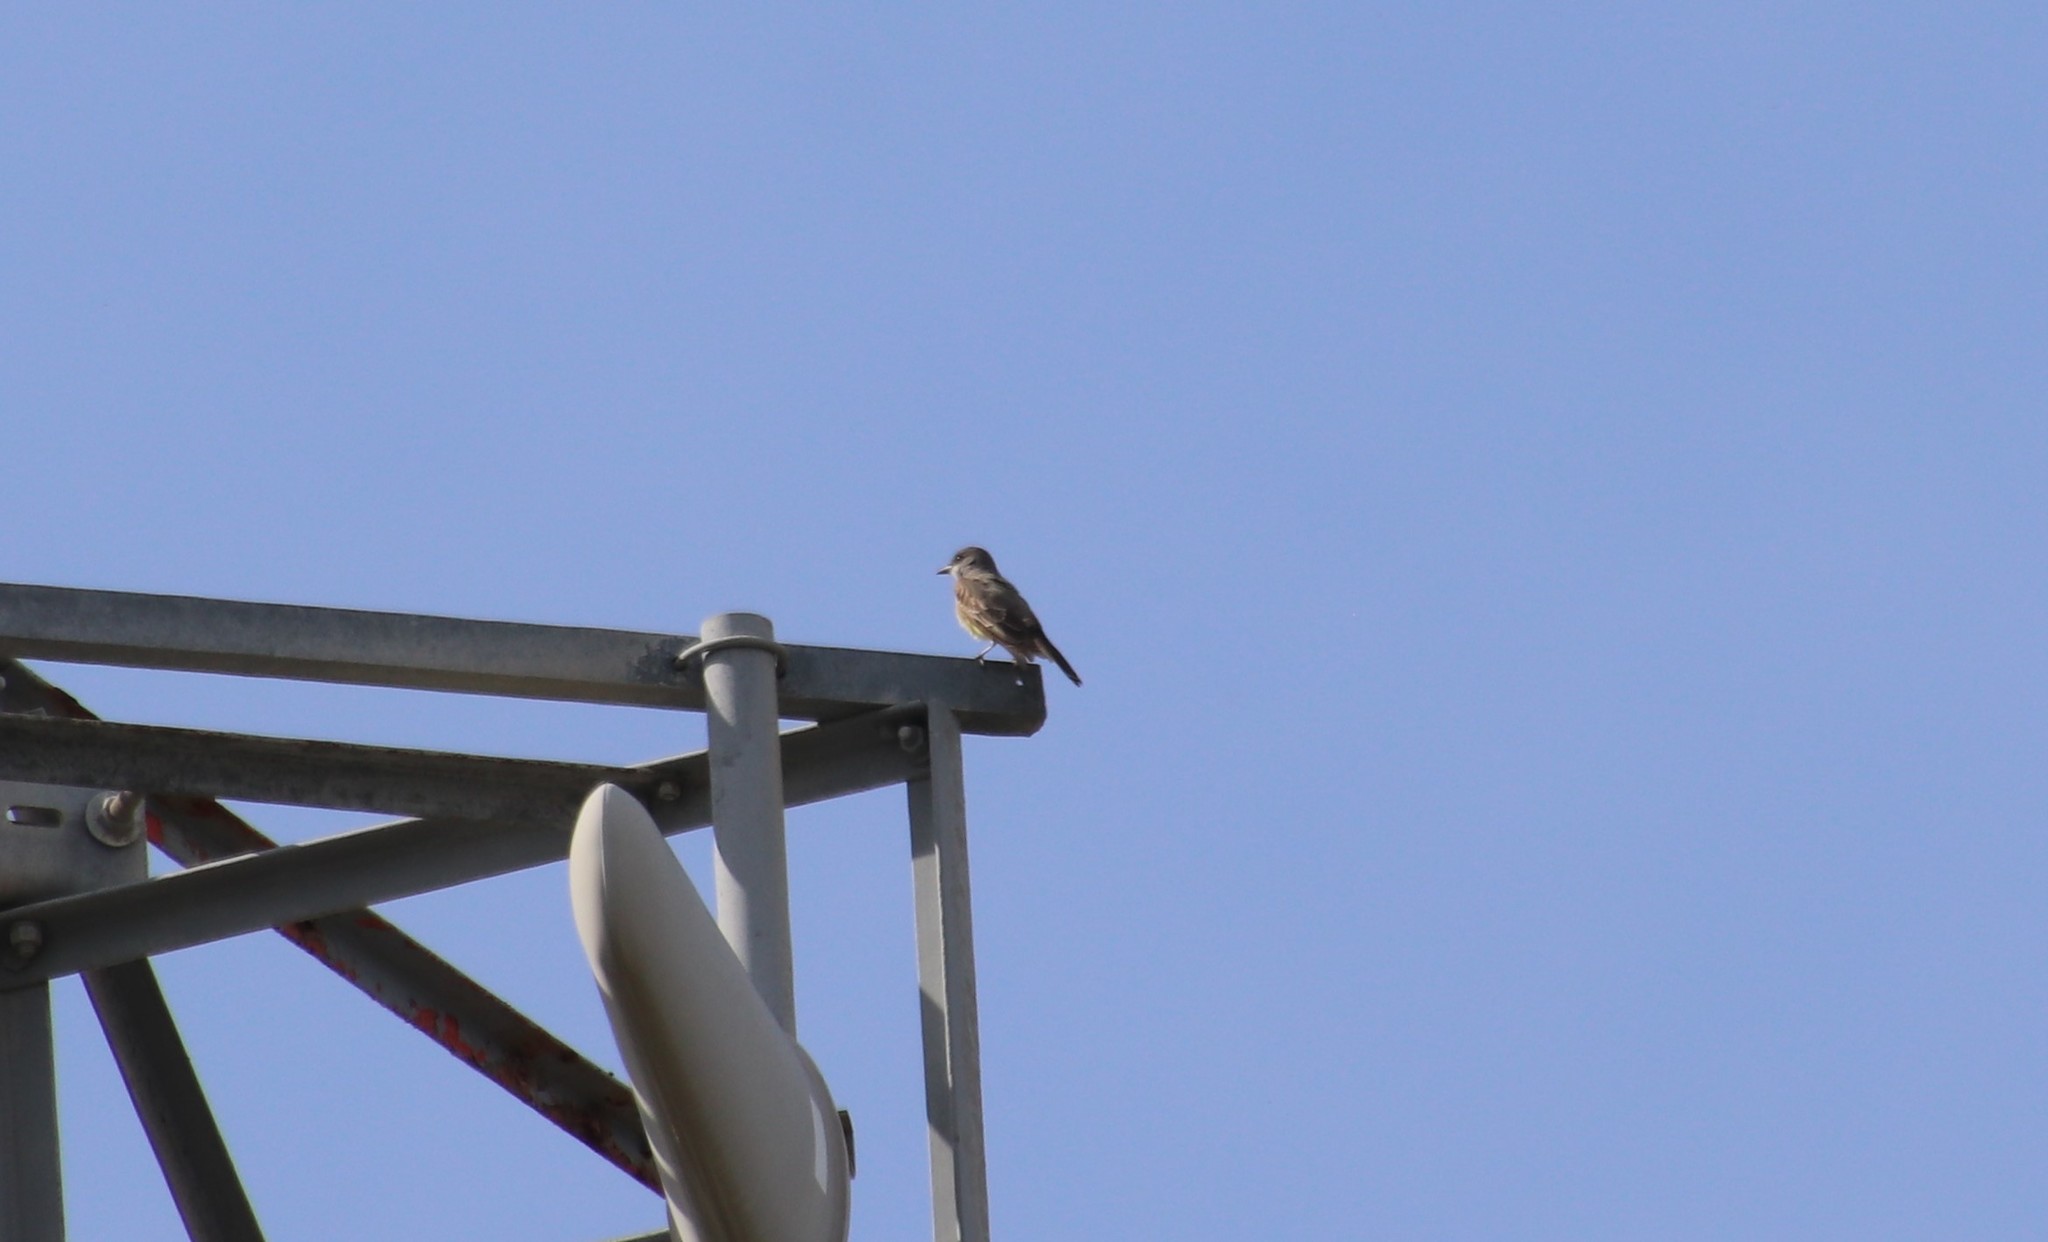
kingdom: Animalia
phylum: Chordata
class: Aves
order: Passeriformes
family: Tyrannidae
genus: Tyrannus
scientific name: Tyrannus vociferans
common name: Cassin's kingbird
